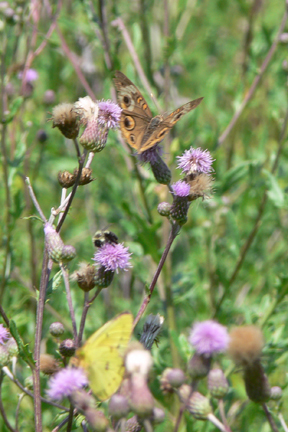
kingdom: Animalia
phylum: Arthropoda
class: Insecta
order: Lepidoptera
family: Nymphalidae
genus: Junonia
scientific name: Junonia coenia
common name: Common buckeye
